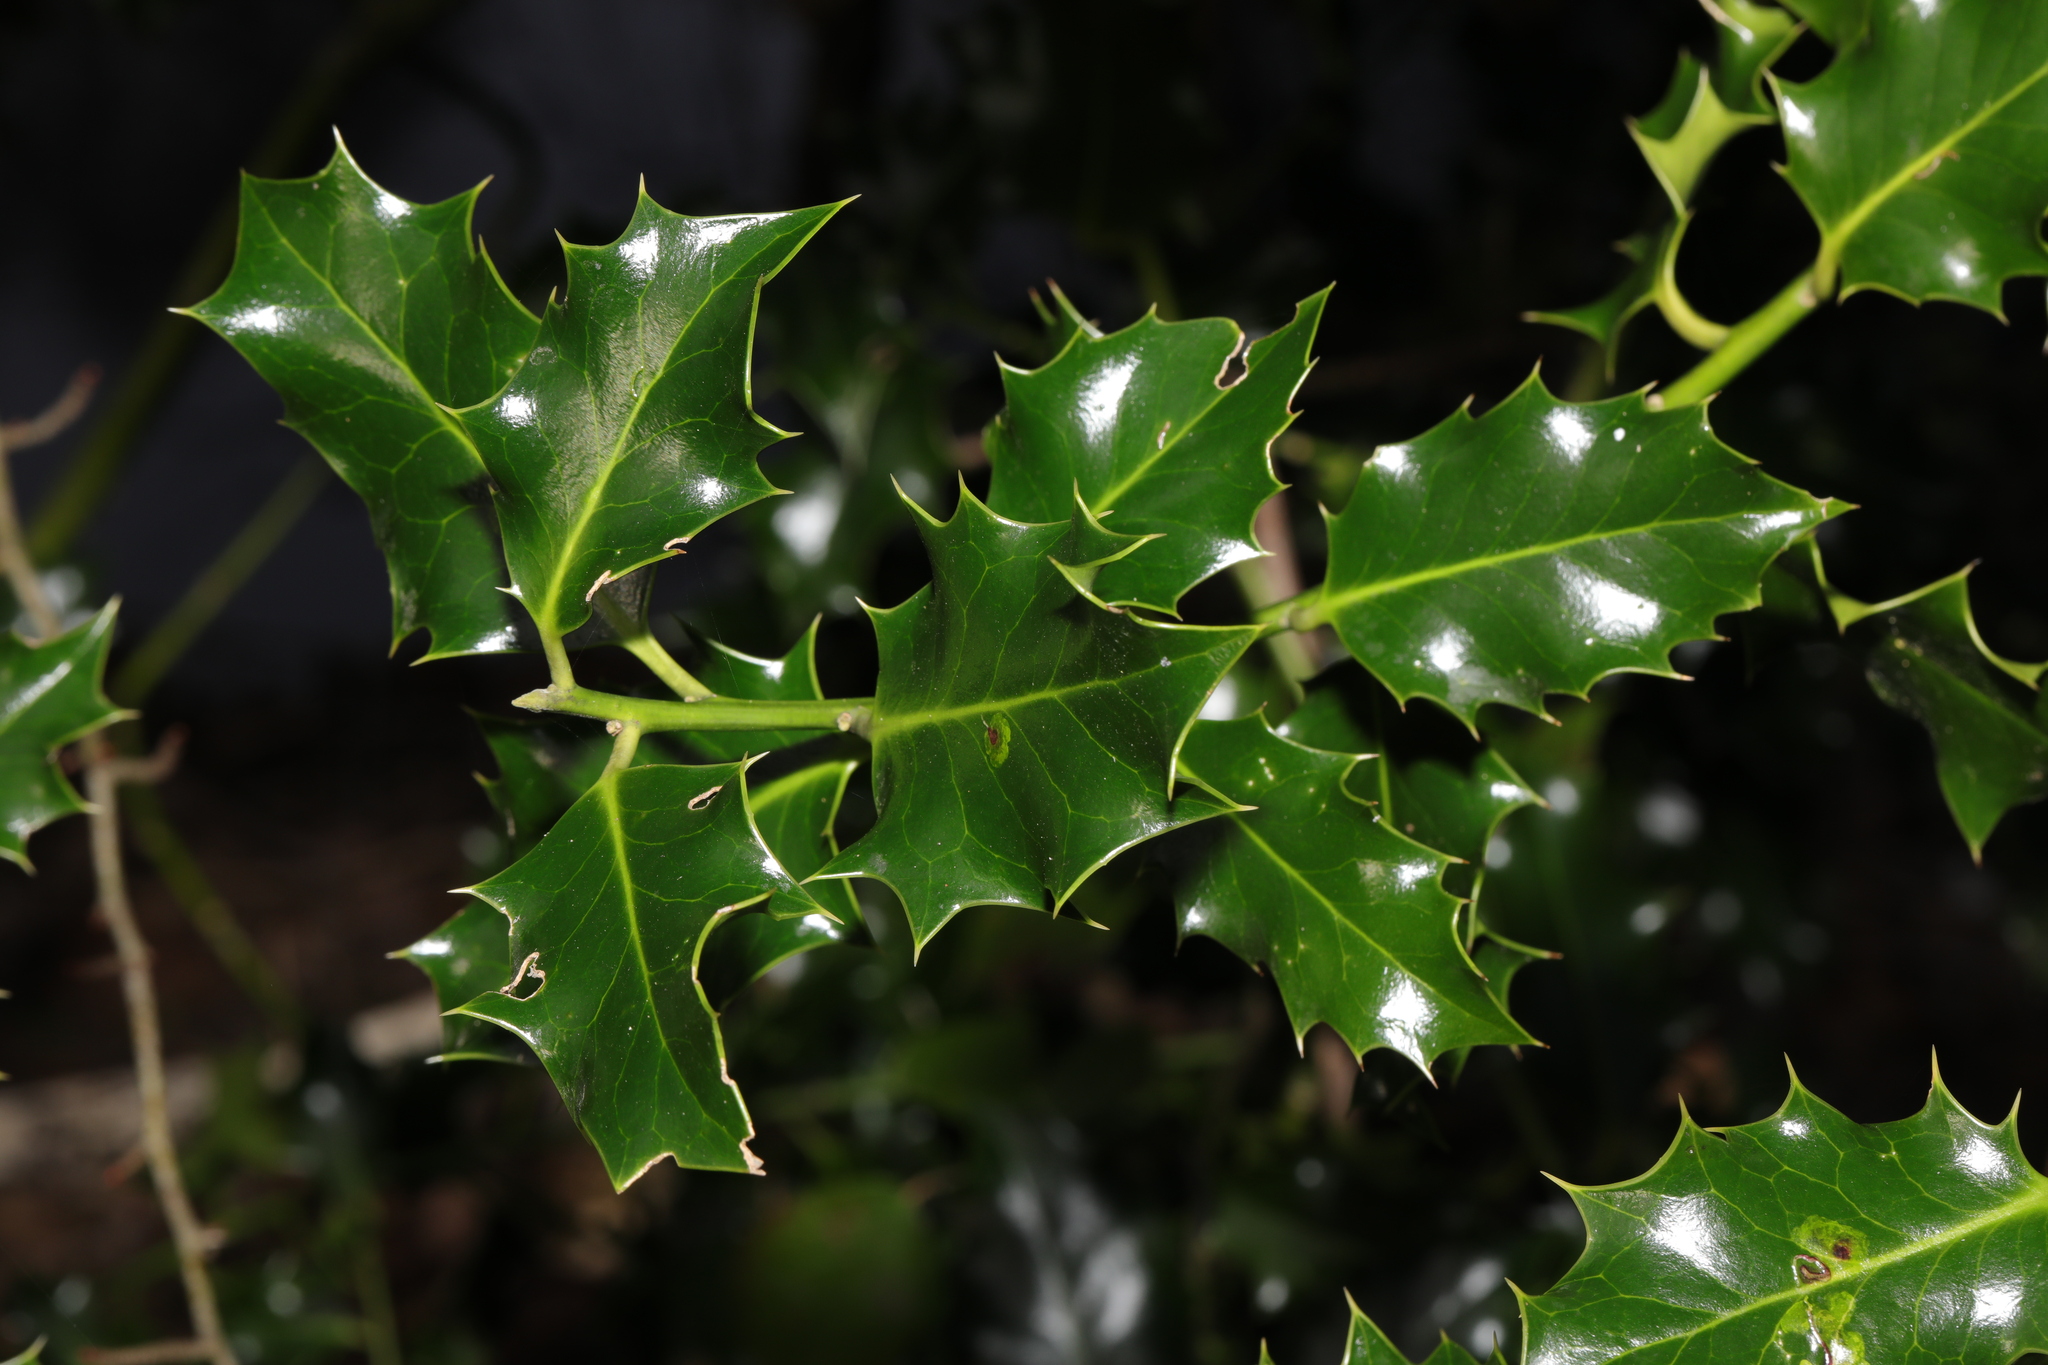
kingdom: Plantae
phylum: Tracheophyta
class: Magnoliopsida
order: Aquifoliales
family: Aquifoliaceae
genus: Ilex
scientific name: Ilex aquifolium
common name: English holly
